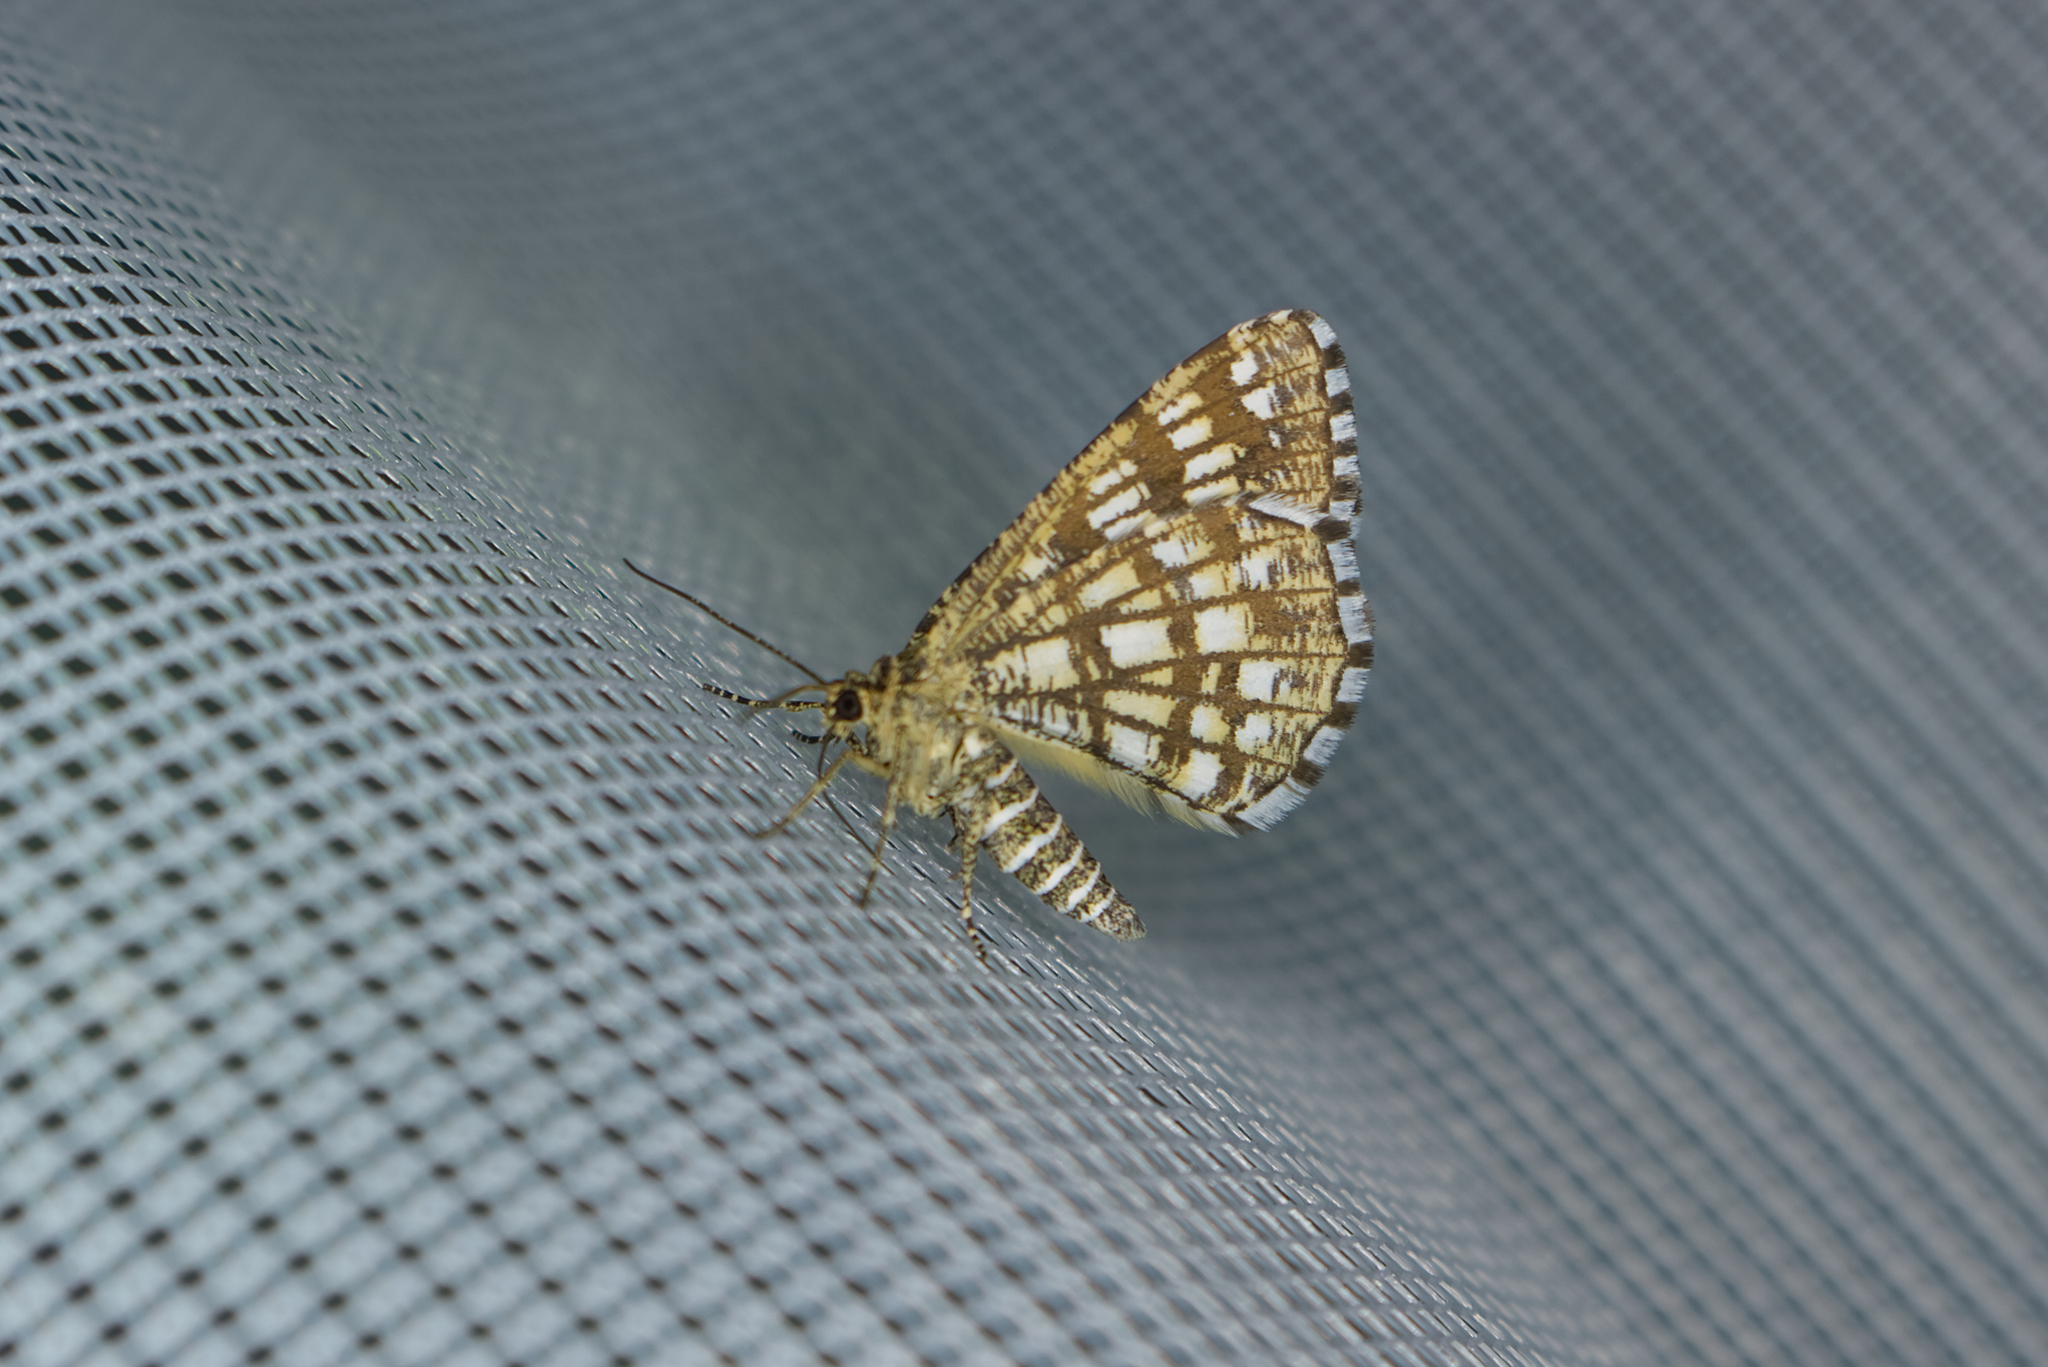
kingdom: Animalia
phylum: Arthropoda
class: Insecta
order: Lepidoptera
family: Geometridae
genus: Chiasmia
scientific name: Chiasmia clathrata
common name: Latticed heath
